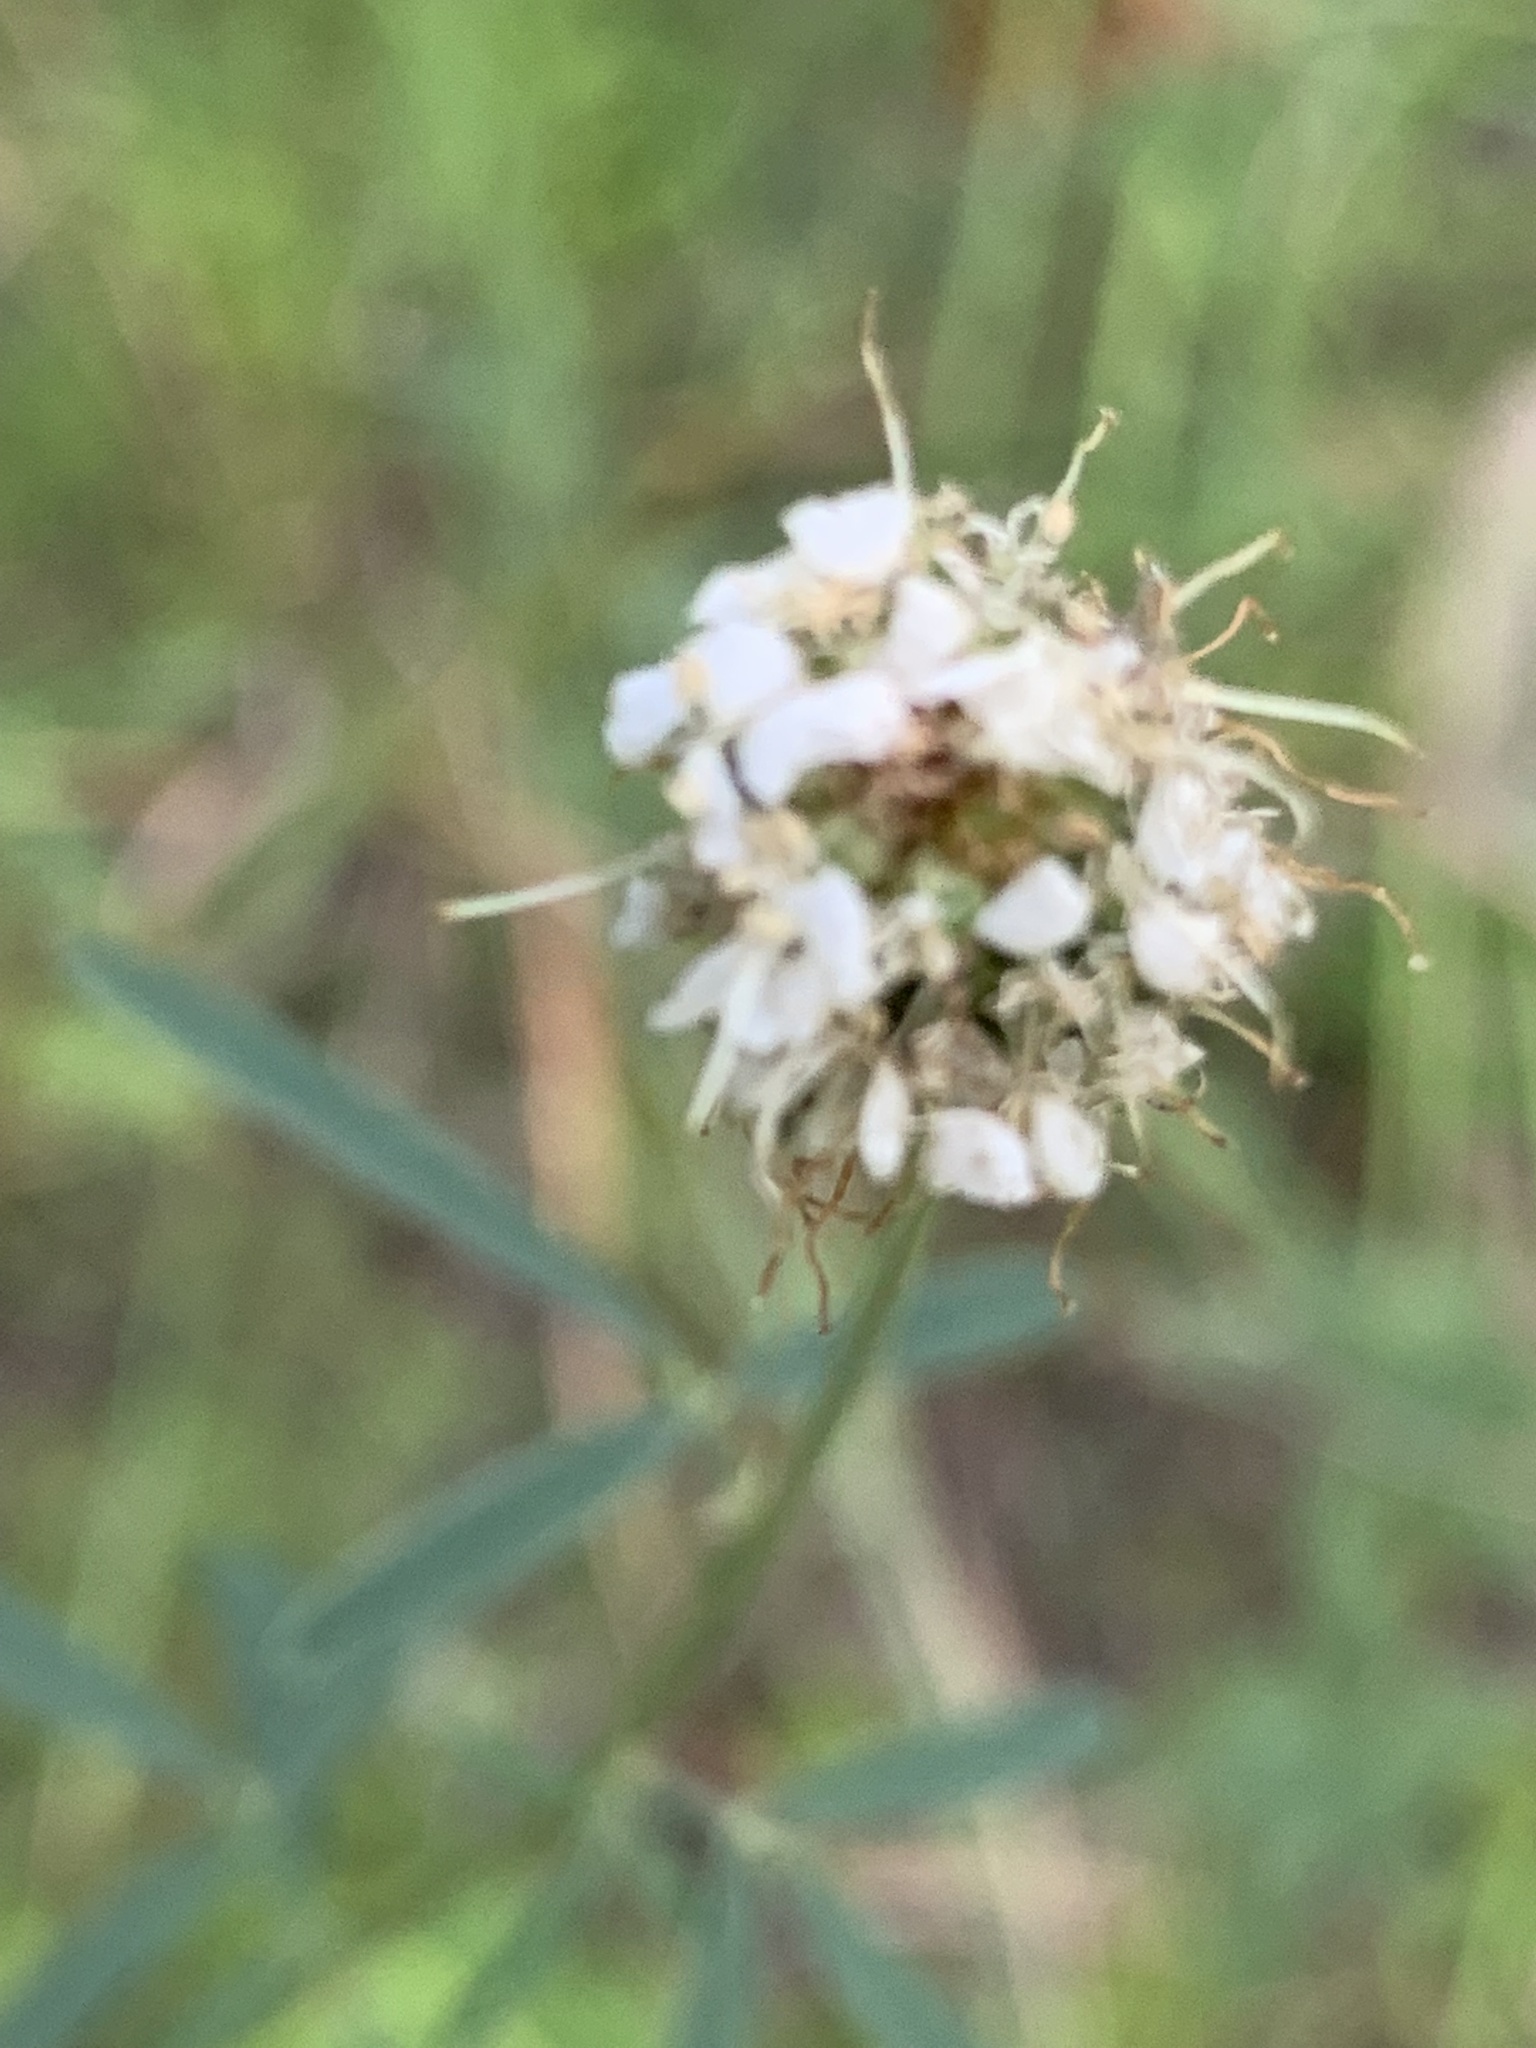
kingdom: Plantae
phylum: Tracheophyta
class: Magnoliopsida
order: Fabales
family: Fabaceae
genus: Dalea
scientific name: Dalea candida
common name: White prairie-clover
